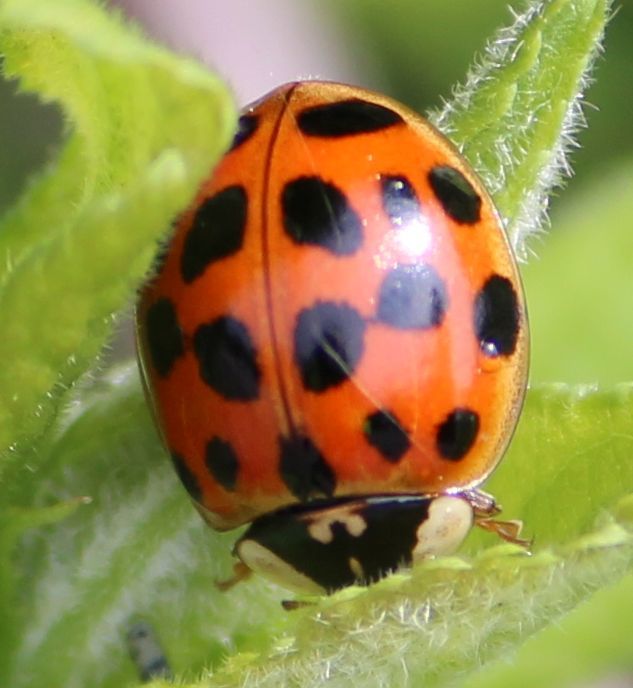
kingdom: Animalia
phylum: Arthropoda
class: Insecta
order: Coleoptera
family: Coccinellidae
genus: Harmonia
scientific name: Harmonia axyridis
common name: Harlequin ladybird
